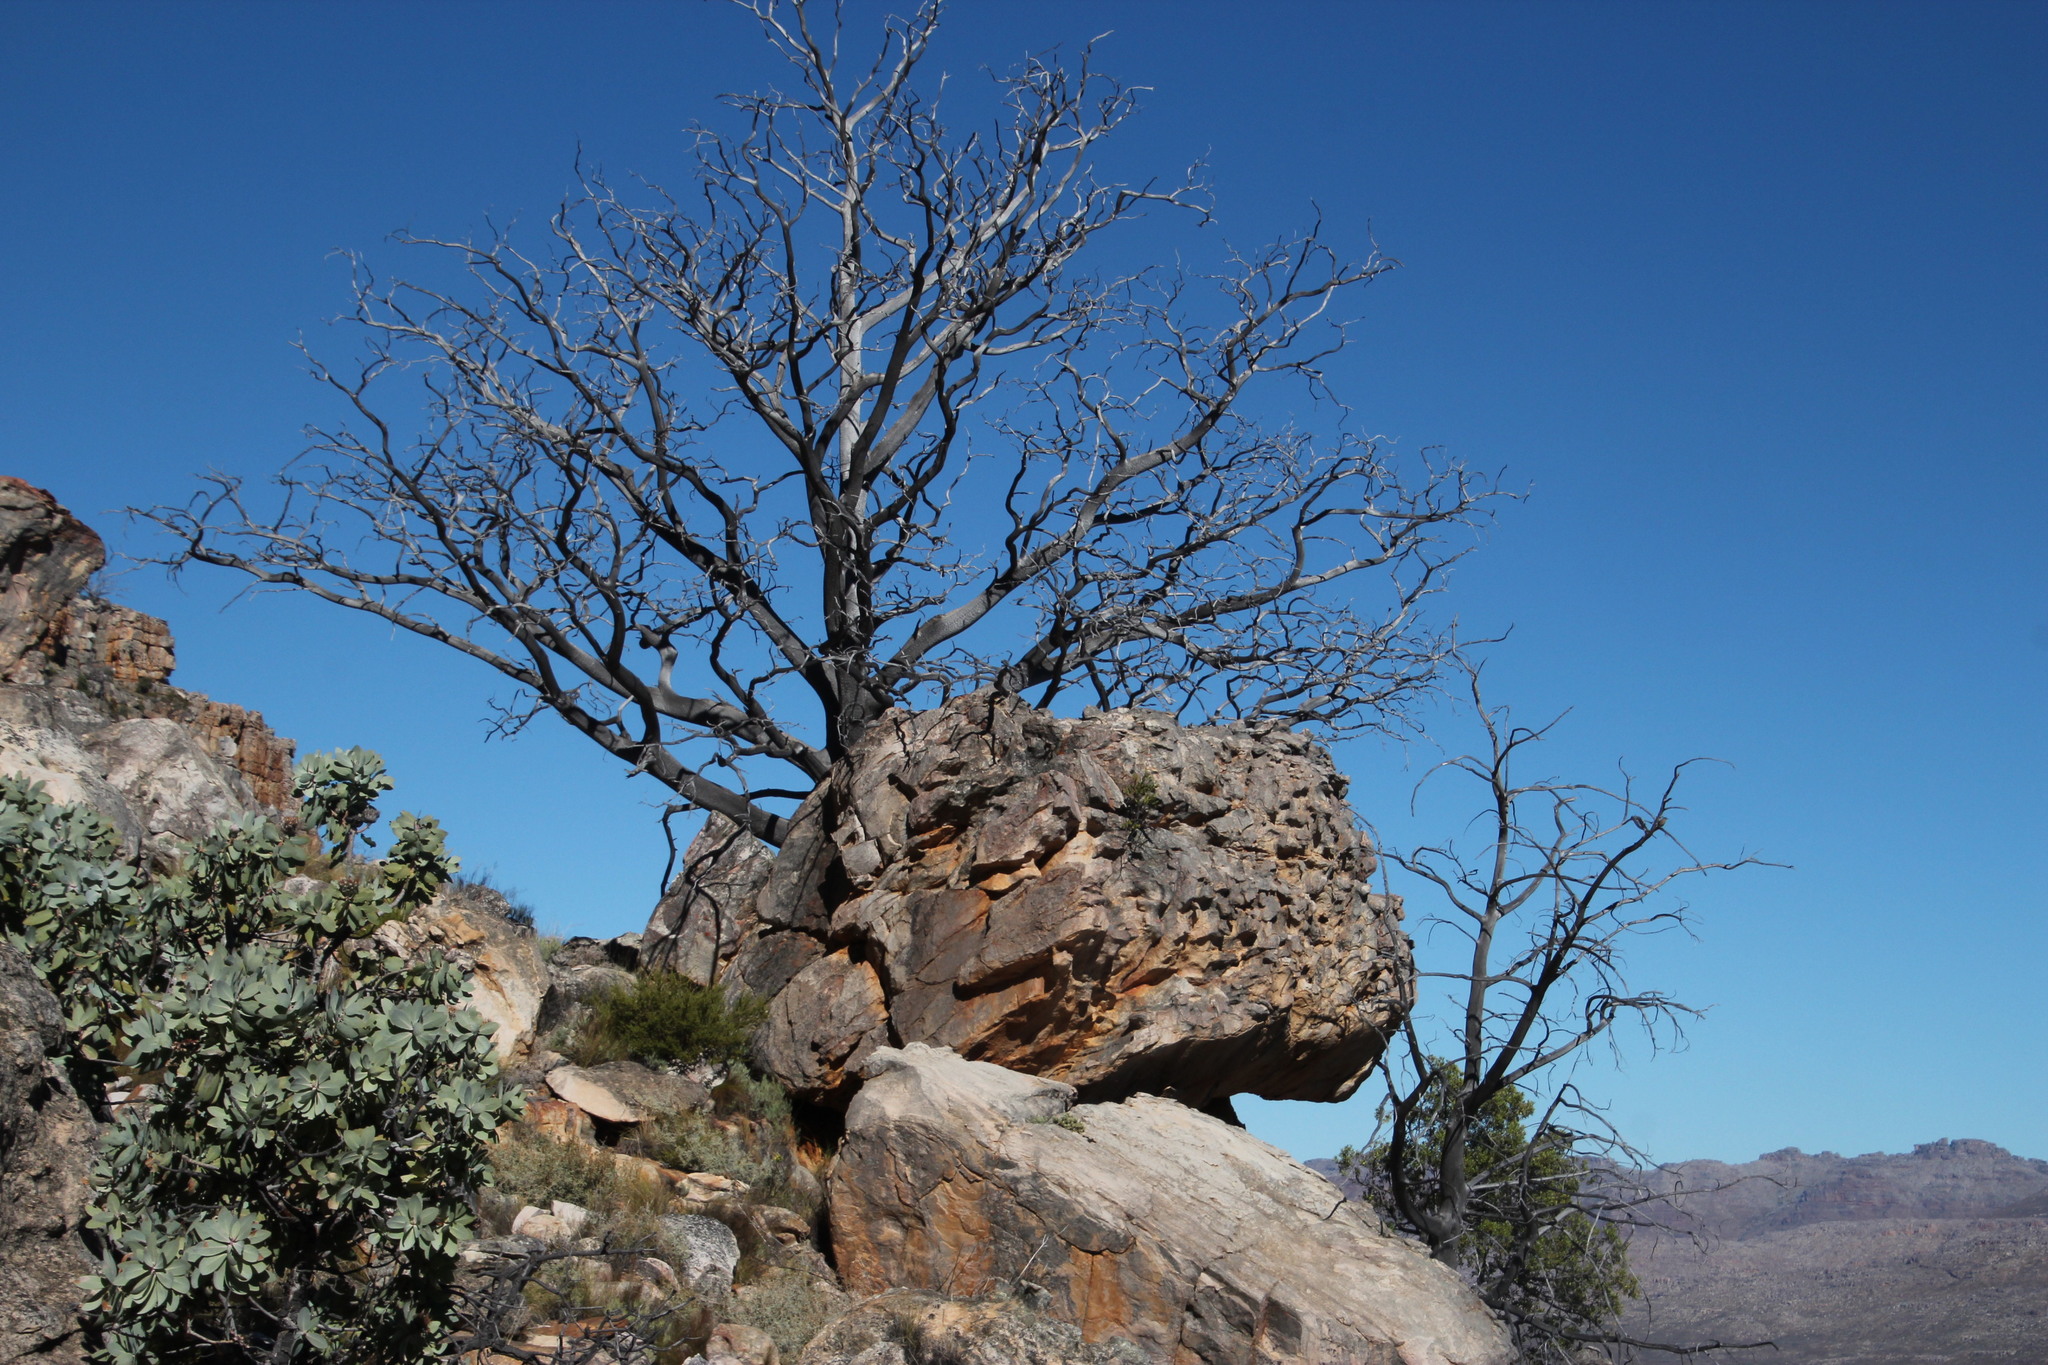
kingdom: Plantae
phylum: Tracheophyta
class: Pinopsida
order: Pinales
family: Cupressaceae
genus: Widdringtonia
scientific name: Widdringtonia nodiflora
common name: Cape cypress
